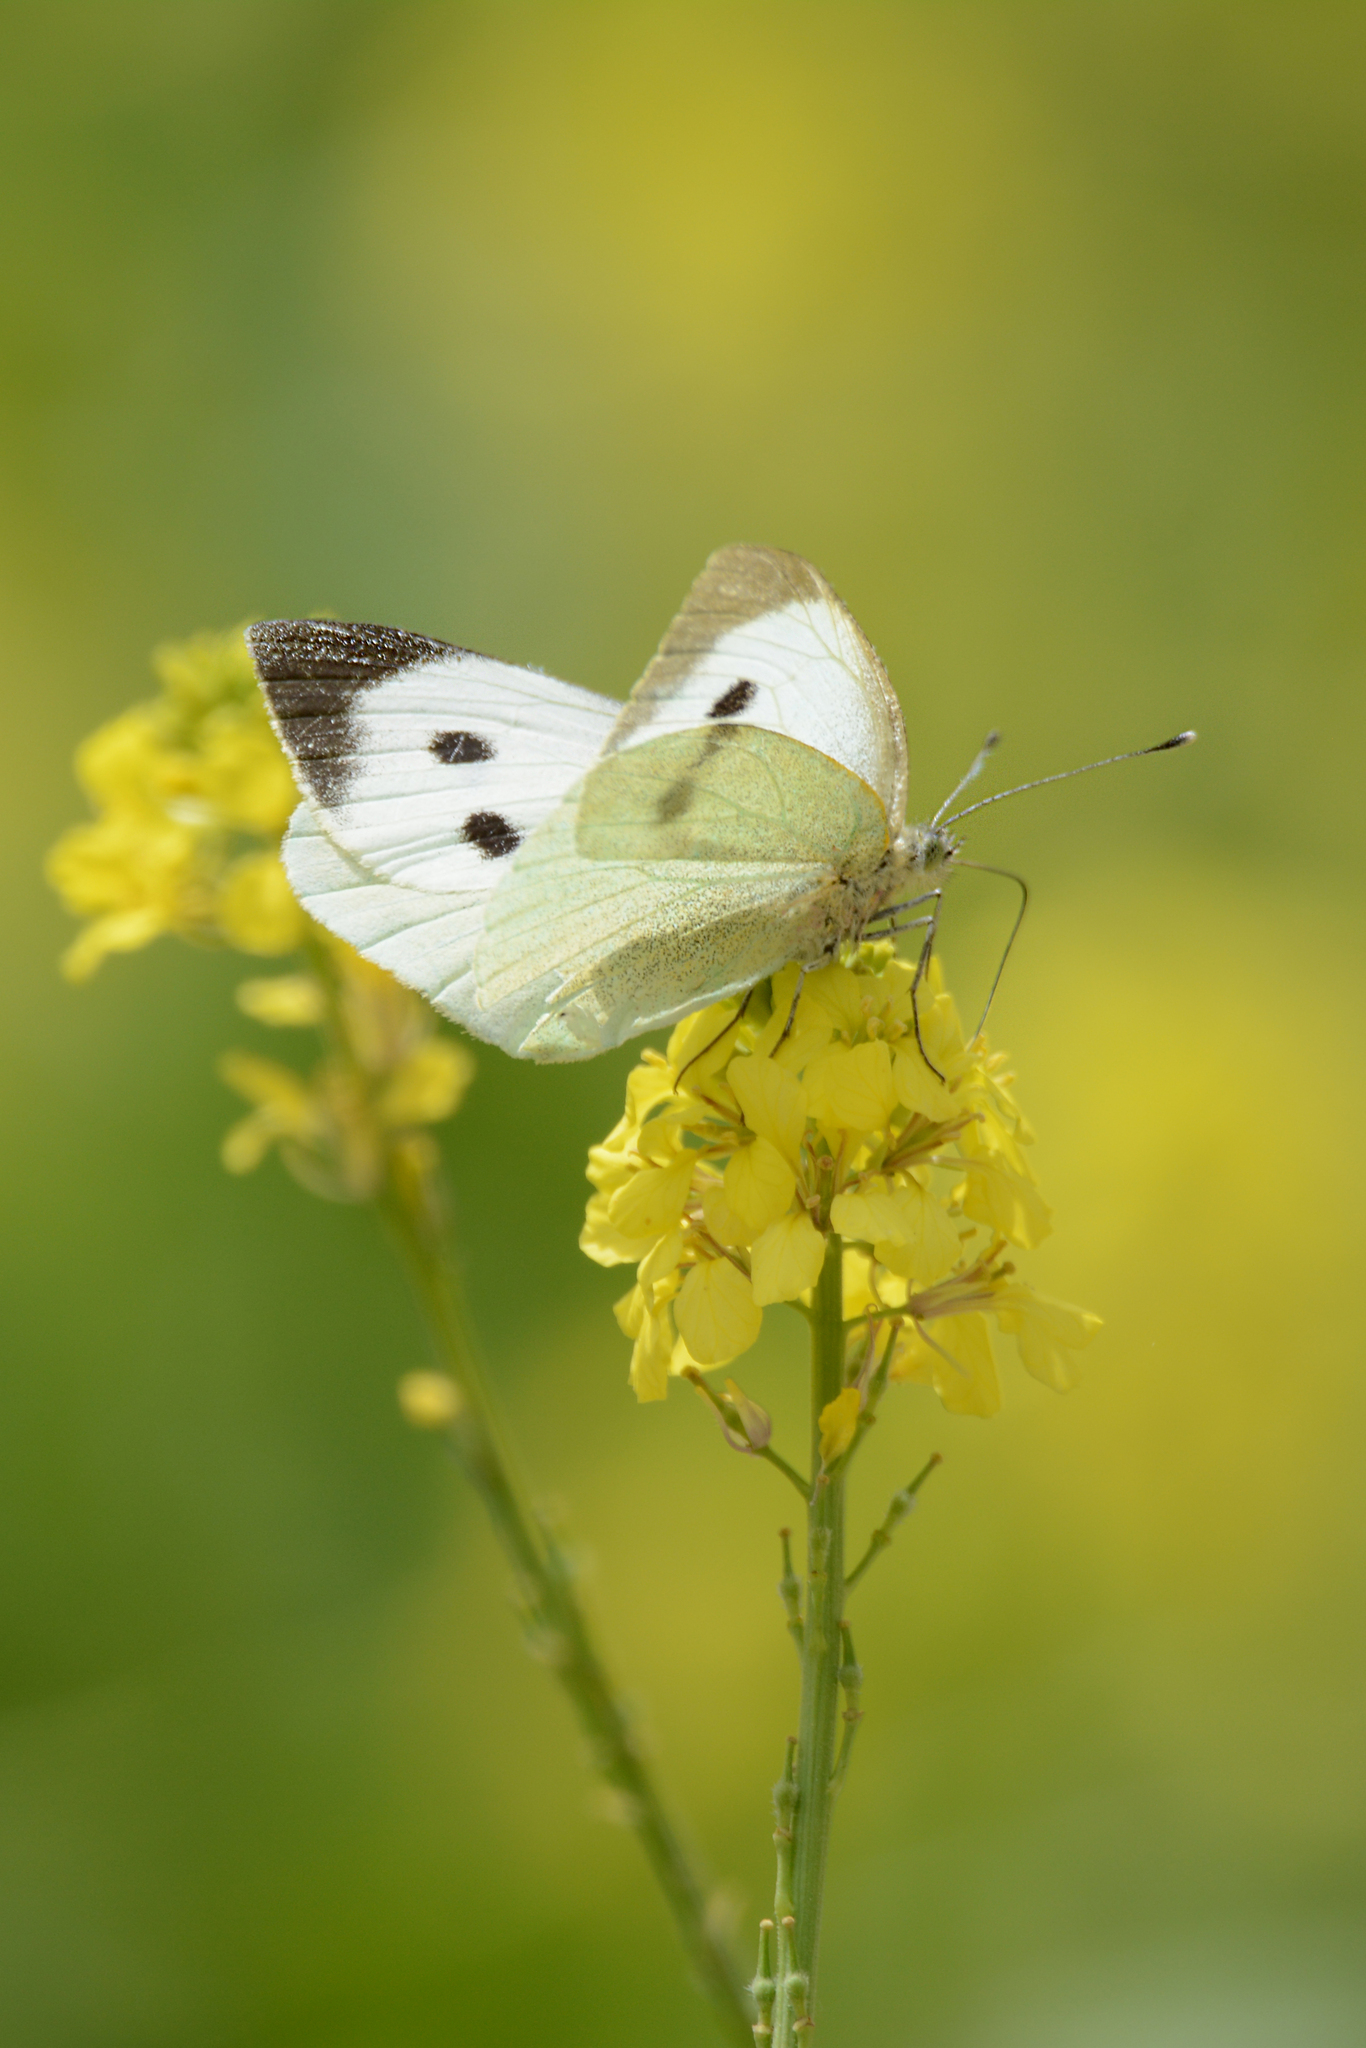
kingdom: Animalia
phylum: Arthropoda
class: Insecta
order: Lepidoptera
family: Pieridae
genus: Pieris
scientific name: Pieris brassicae
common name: Large white
